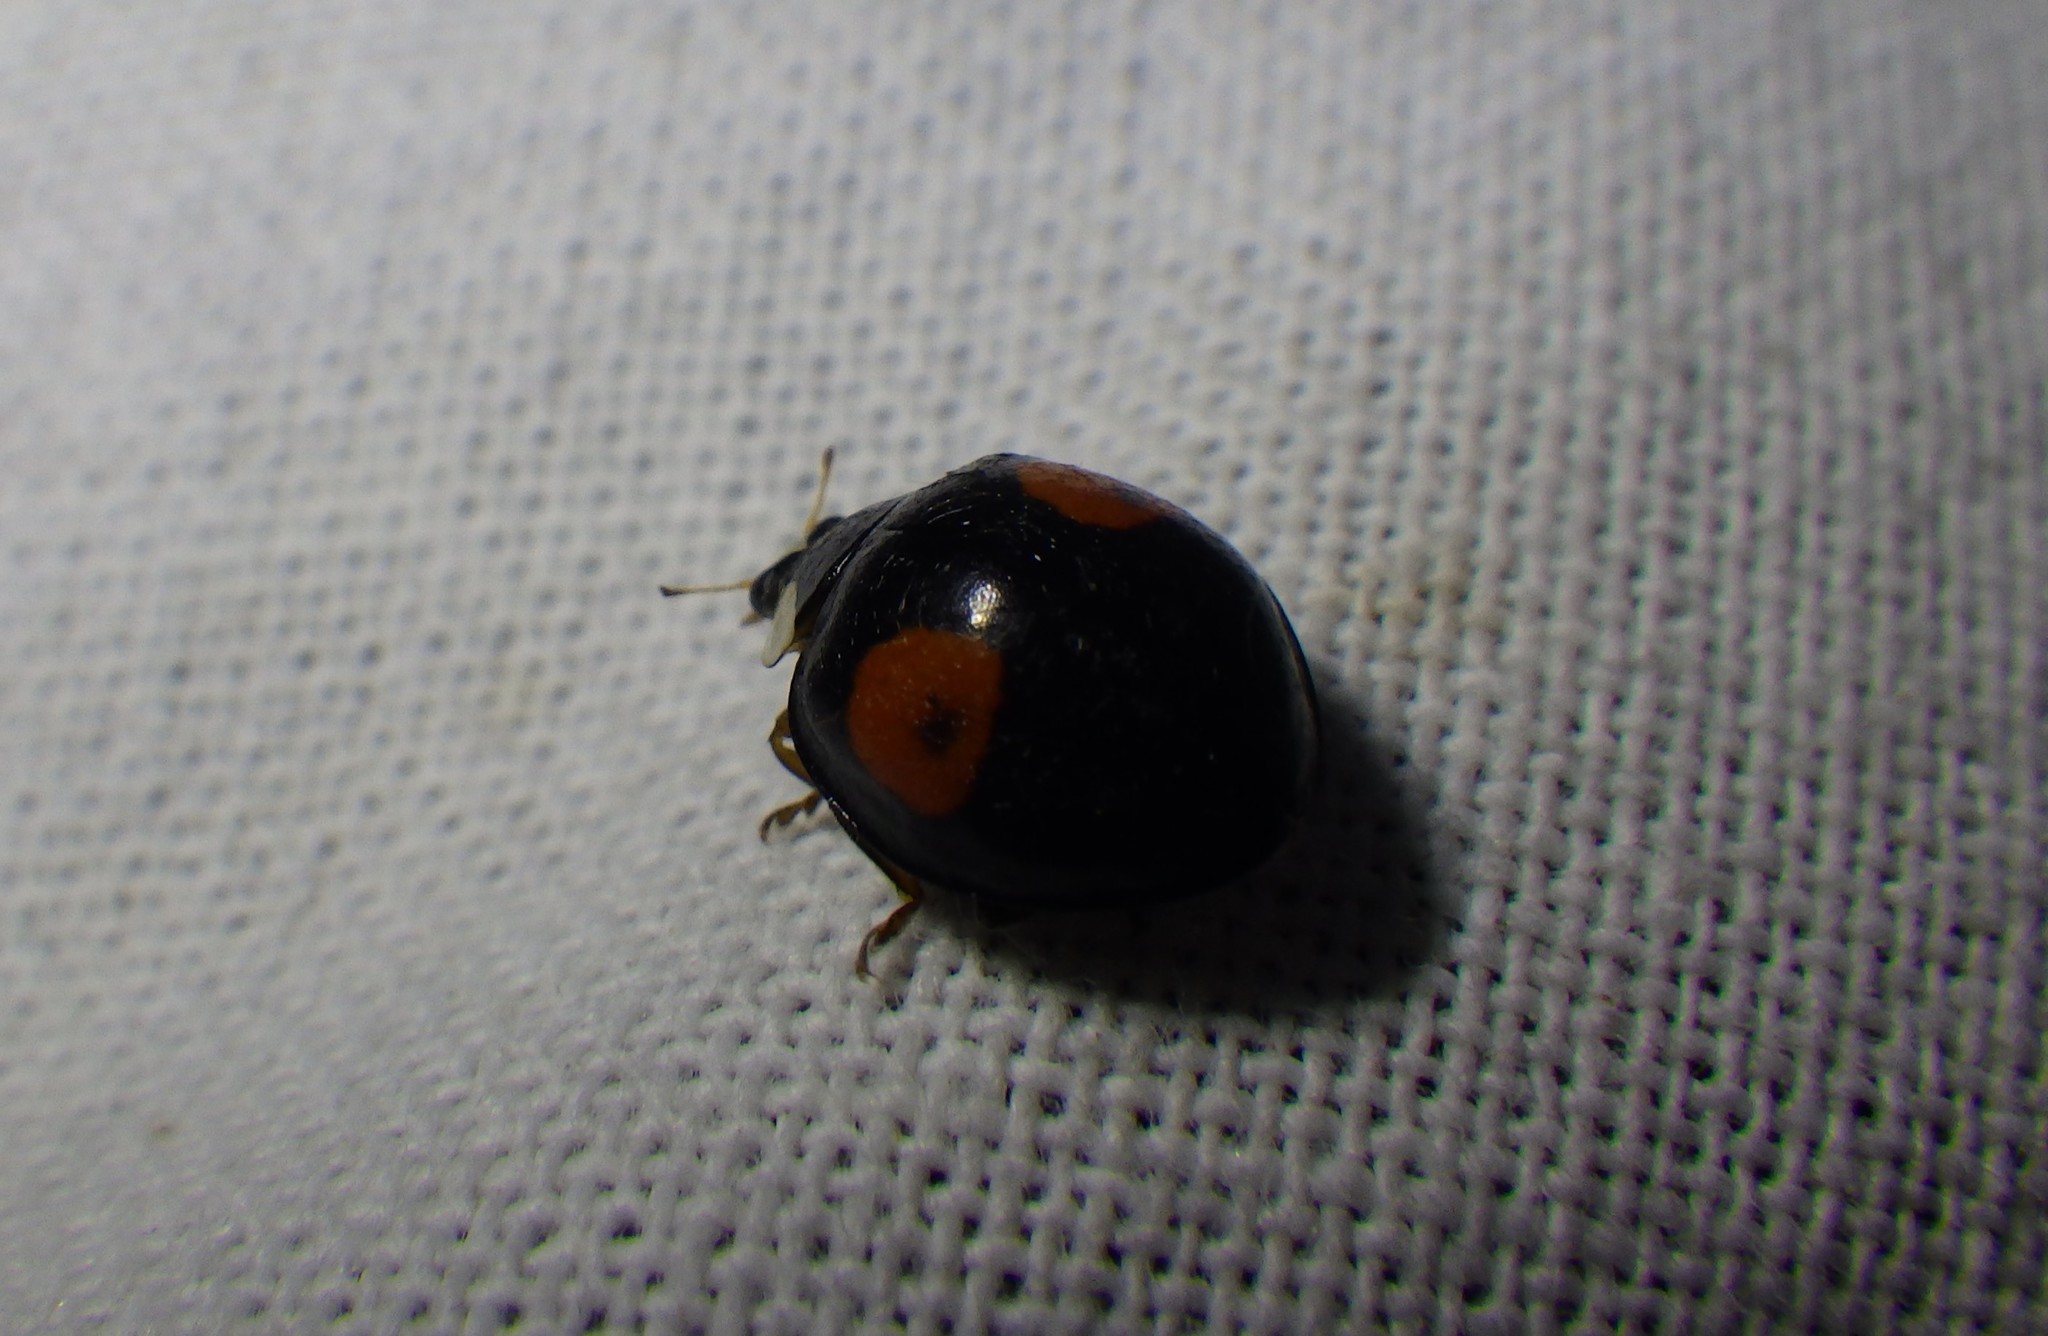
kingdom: Animalia
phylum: Arthropoda
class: Insecta
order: Coleoptera
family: Coccinellidae
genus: Harmonia
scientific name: Harmonia axyridis
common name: Harlequin ladybird
